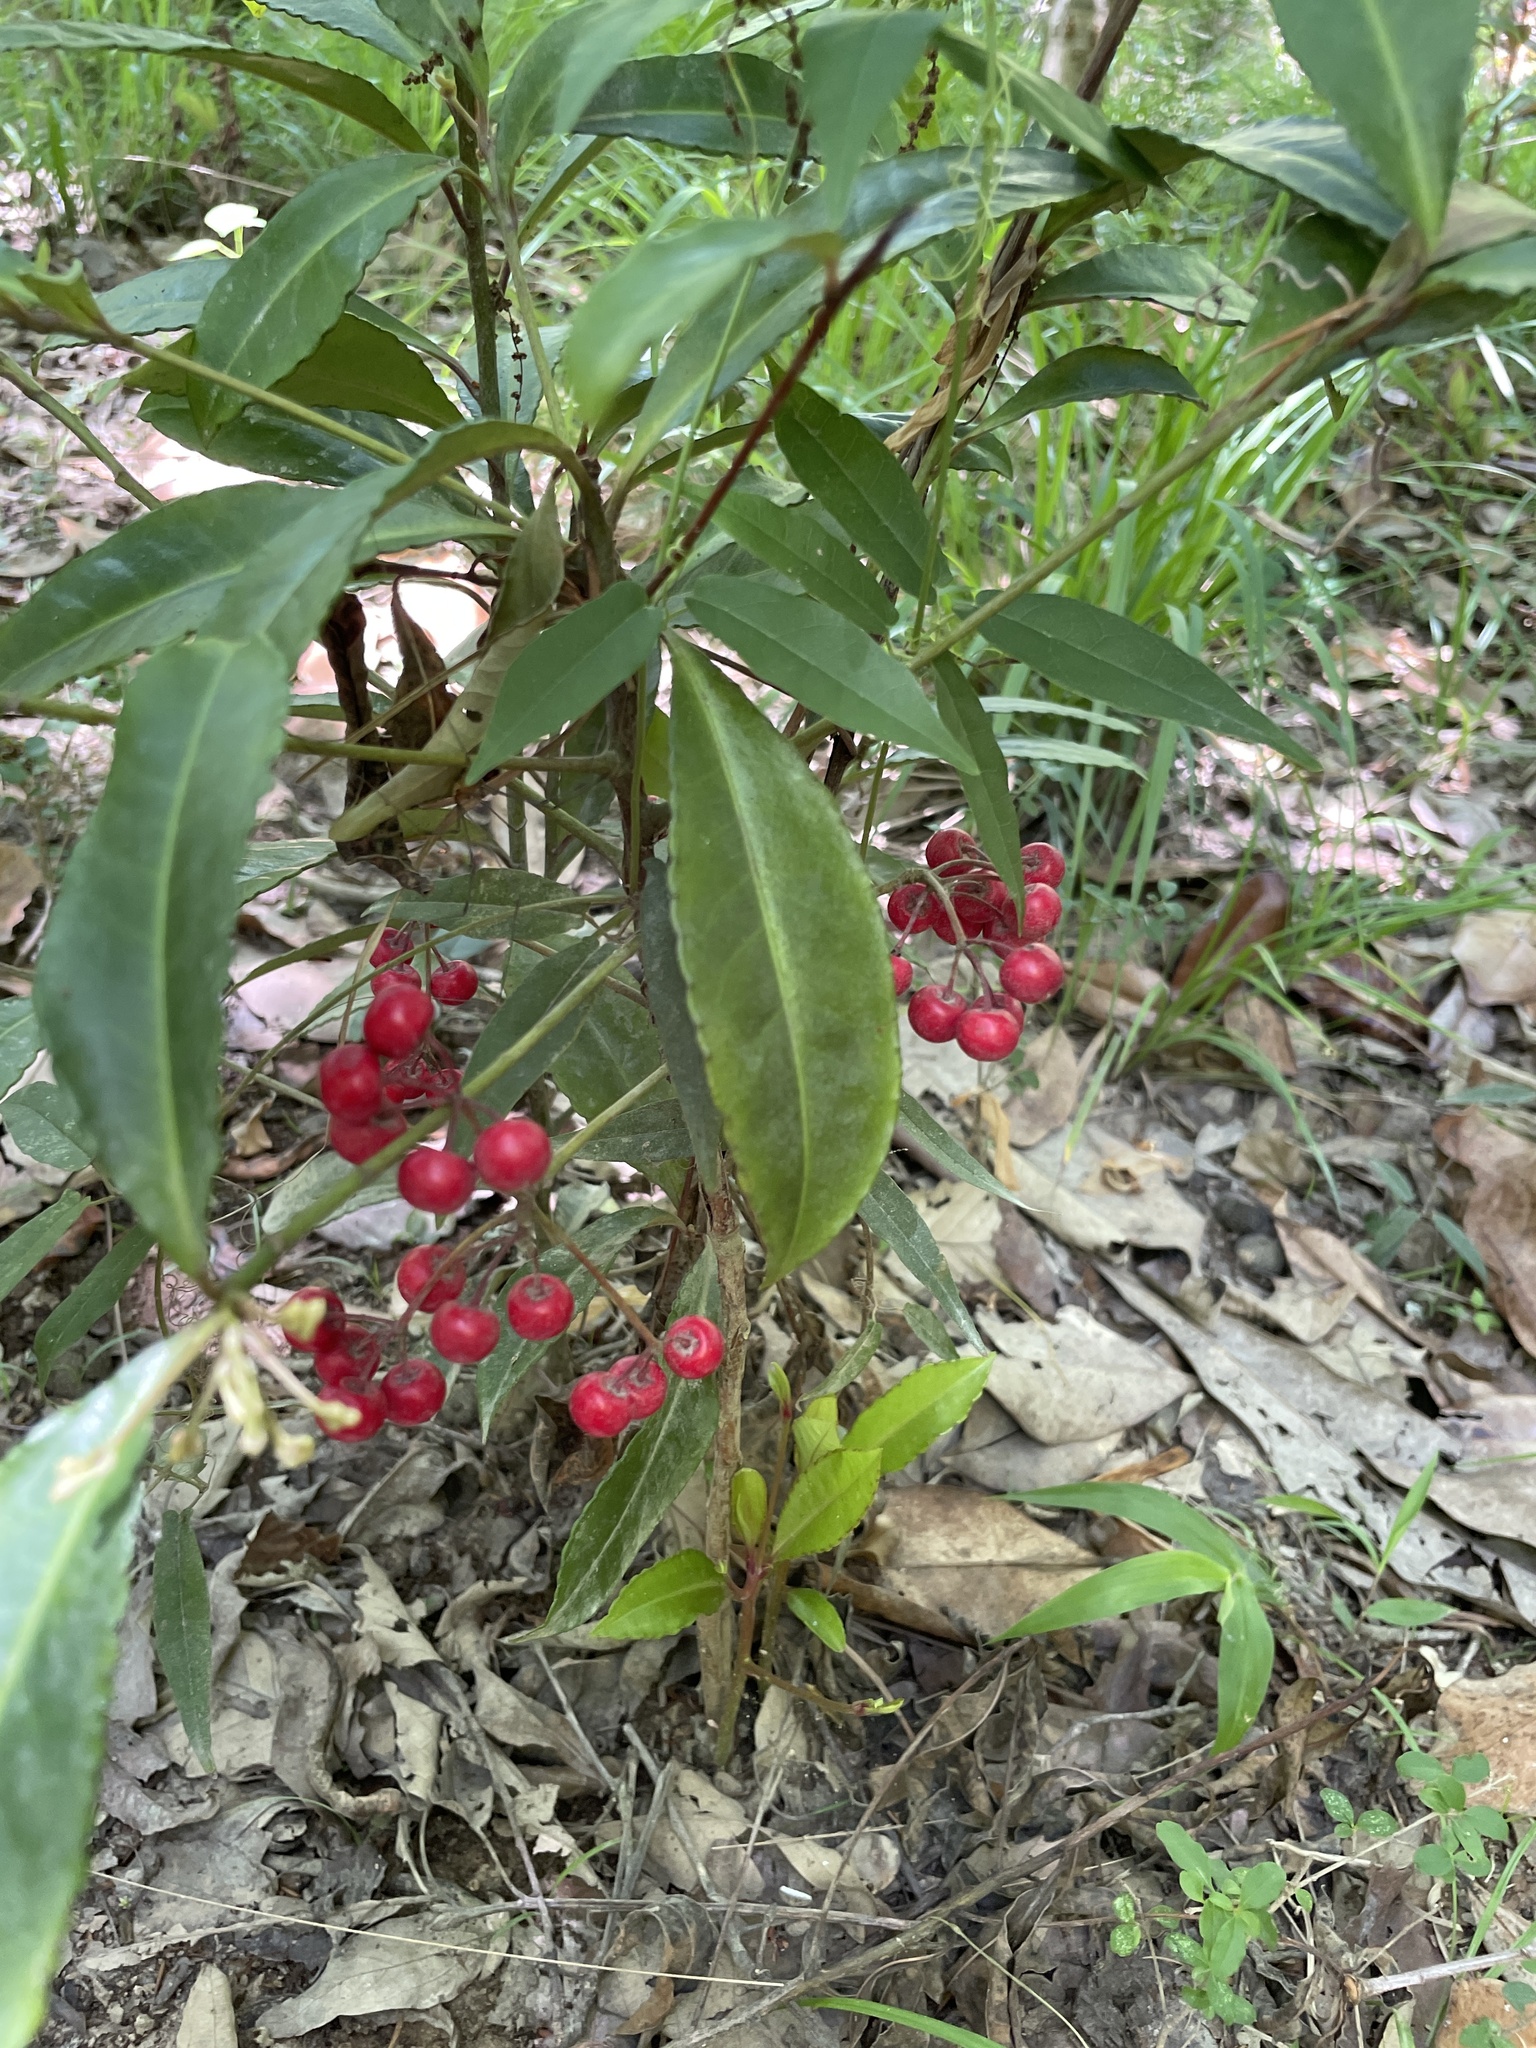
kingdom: Plantae
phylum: Tracheophyta
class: Magnoliopsida
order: Ericales
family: Primulaceae
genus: Ardisia
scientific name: Ardisia crenata
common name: Hen's eyes
